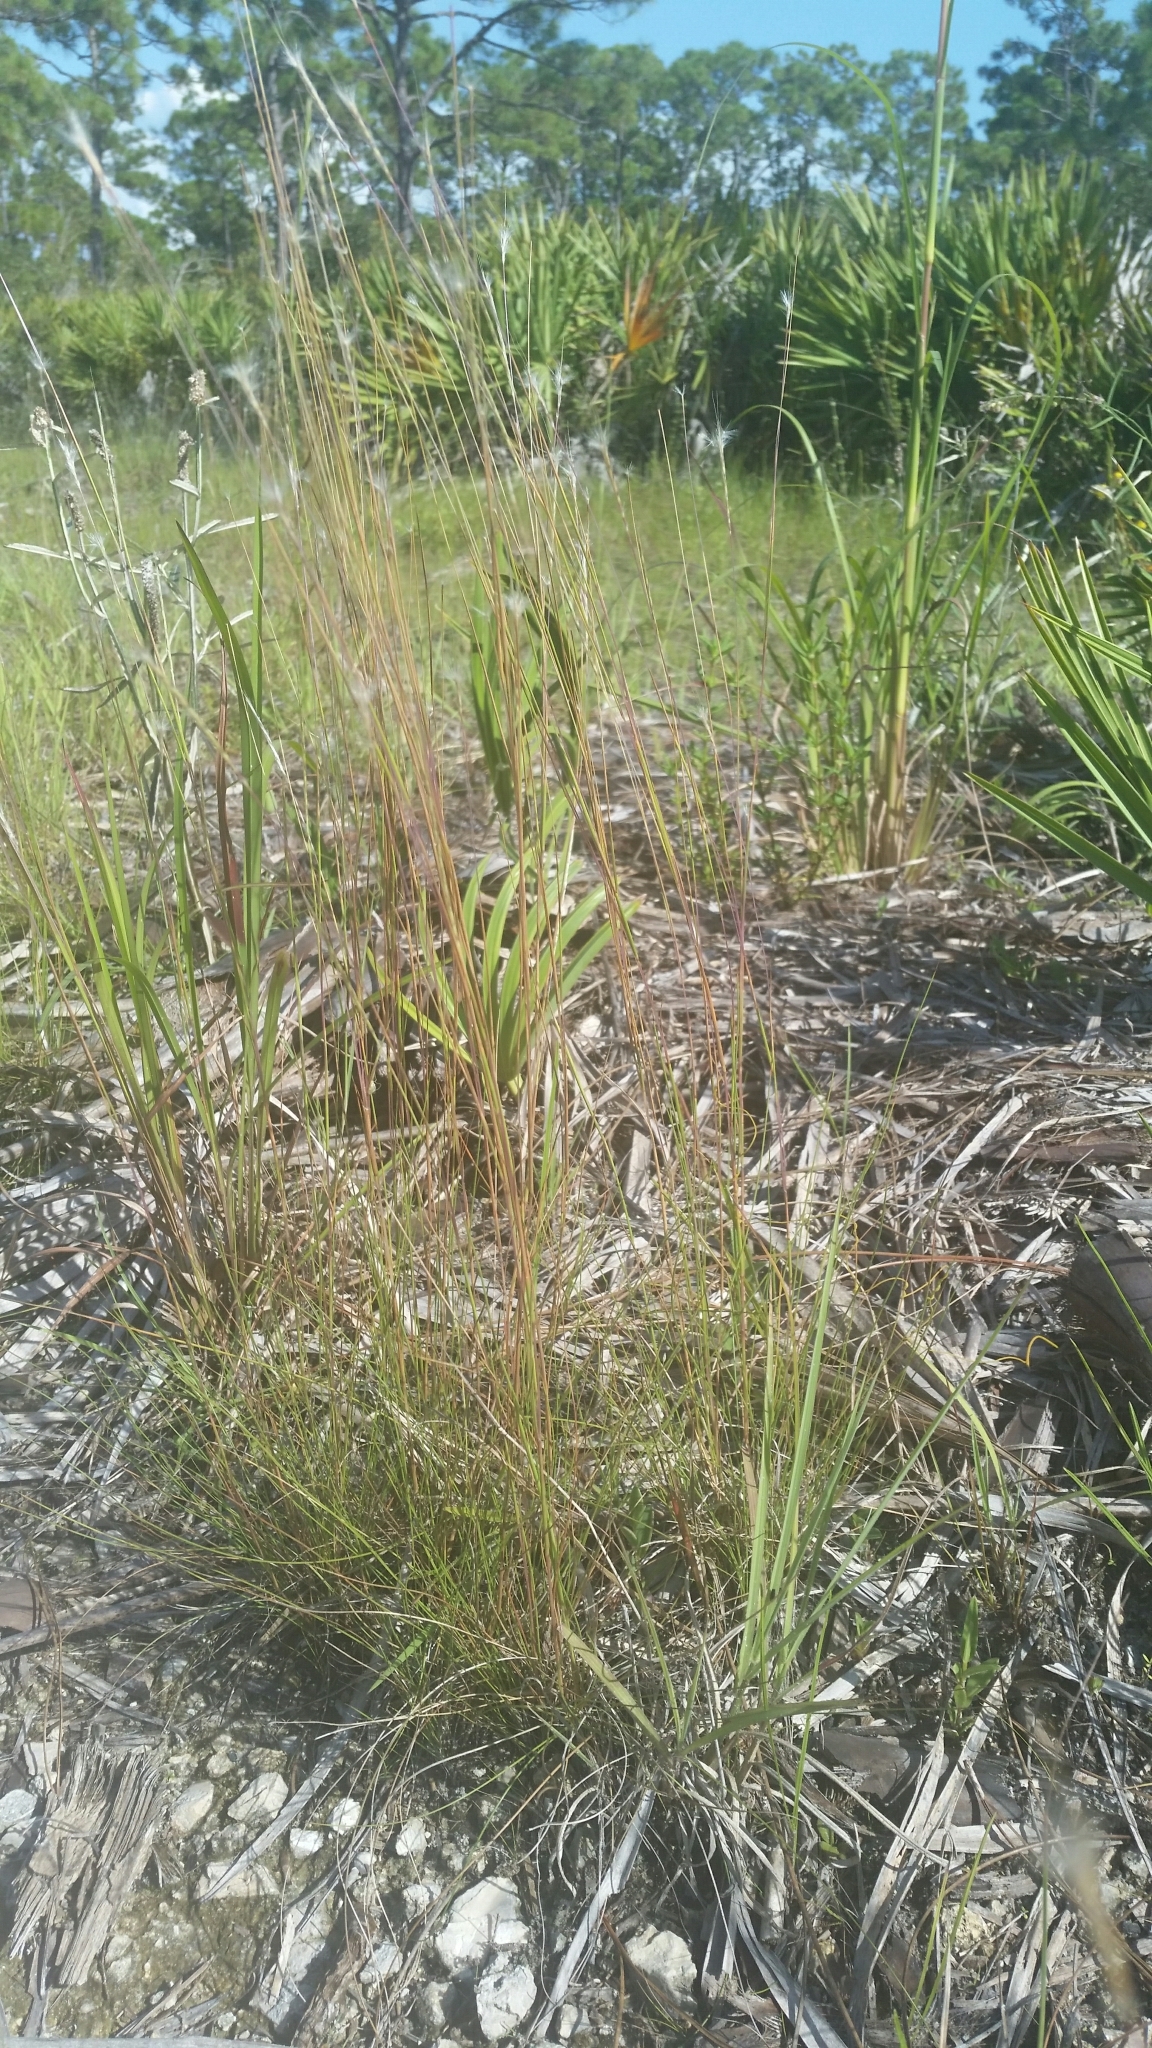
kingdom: Plantae
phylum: Tracheophyta
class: Liliopsida
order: Poales
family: Poaceae
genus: Schizachyrium
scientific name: Schizachyrium gracile
